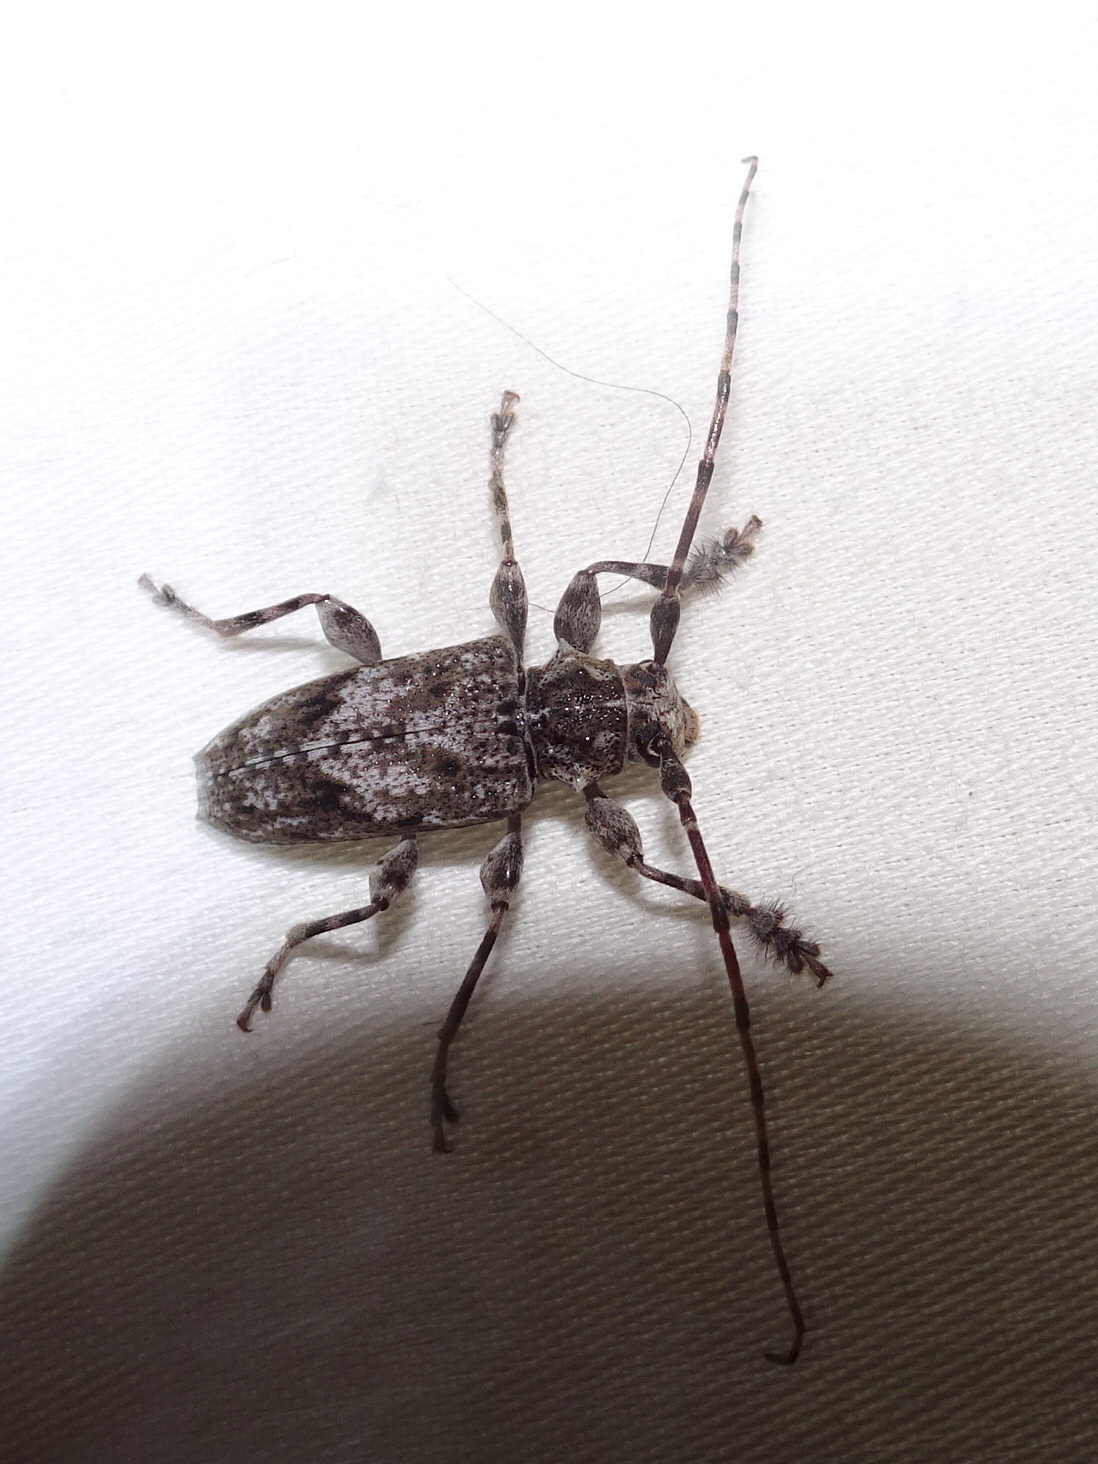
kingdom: Animalia
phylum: Arthropoda
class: Insecta
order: Coleoptera
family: Cerambycidae
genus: Aegomorphus
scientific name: Aegomorphus modestus
